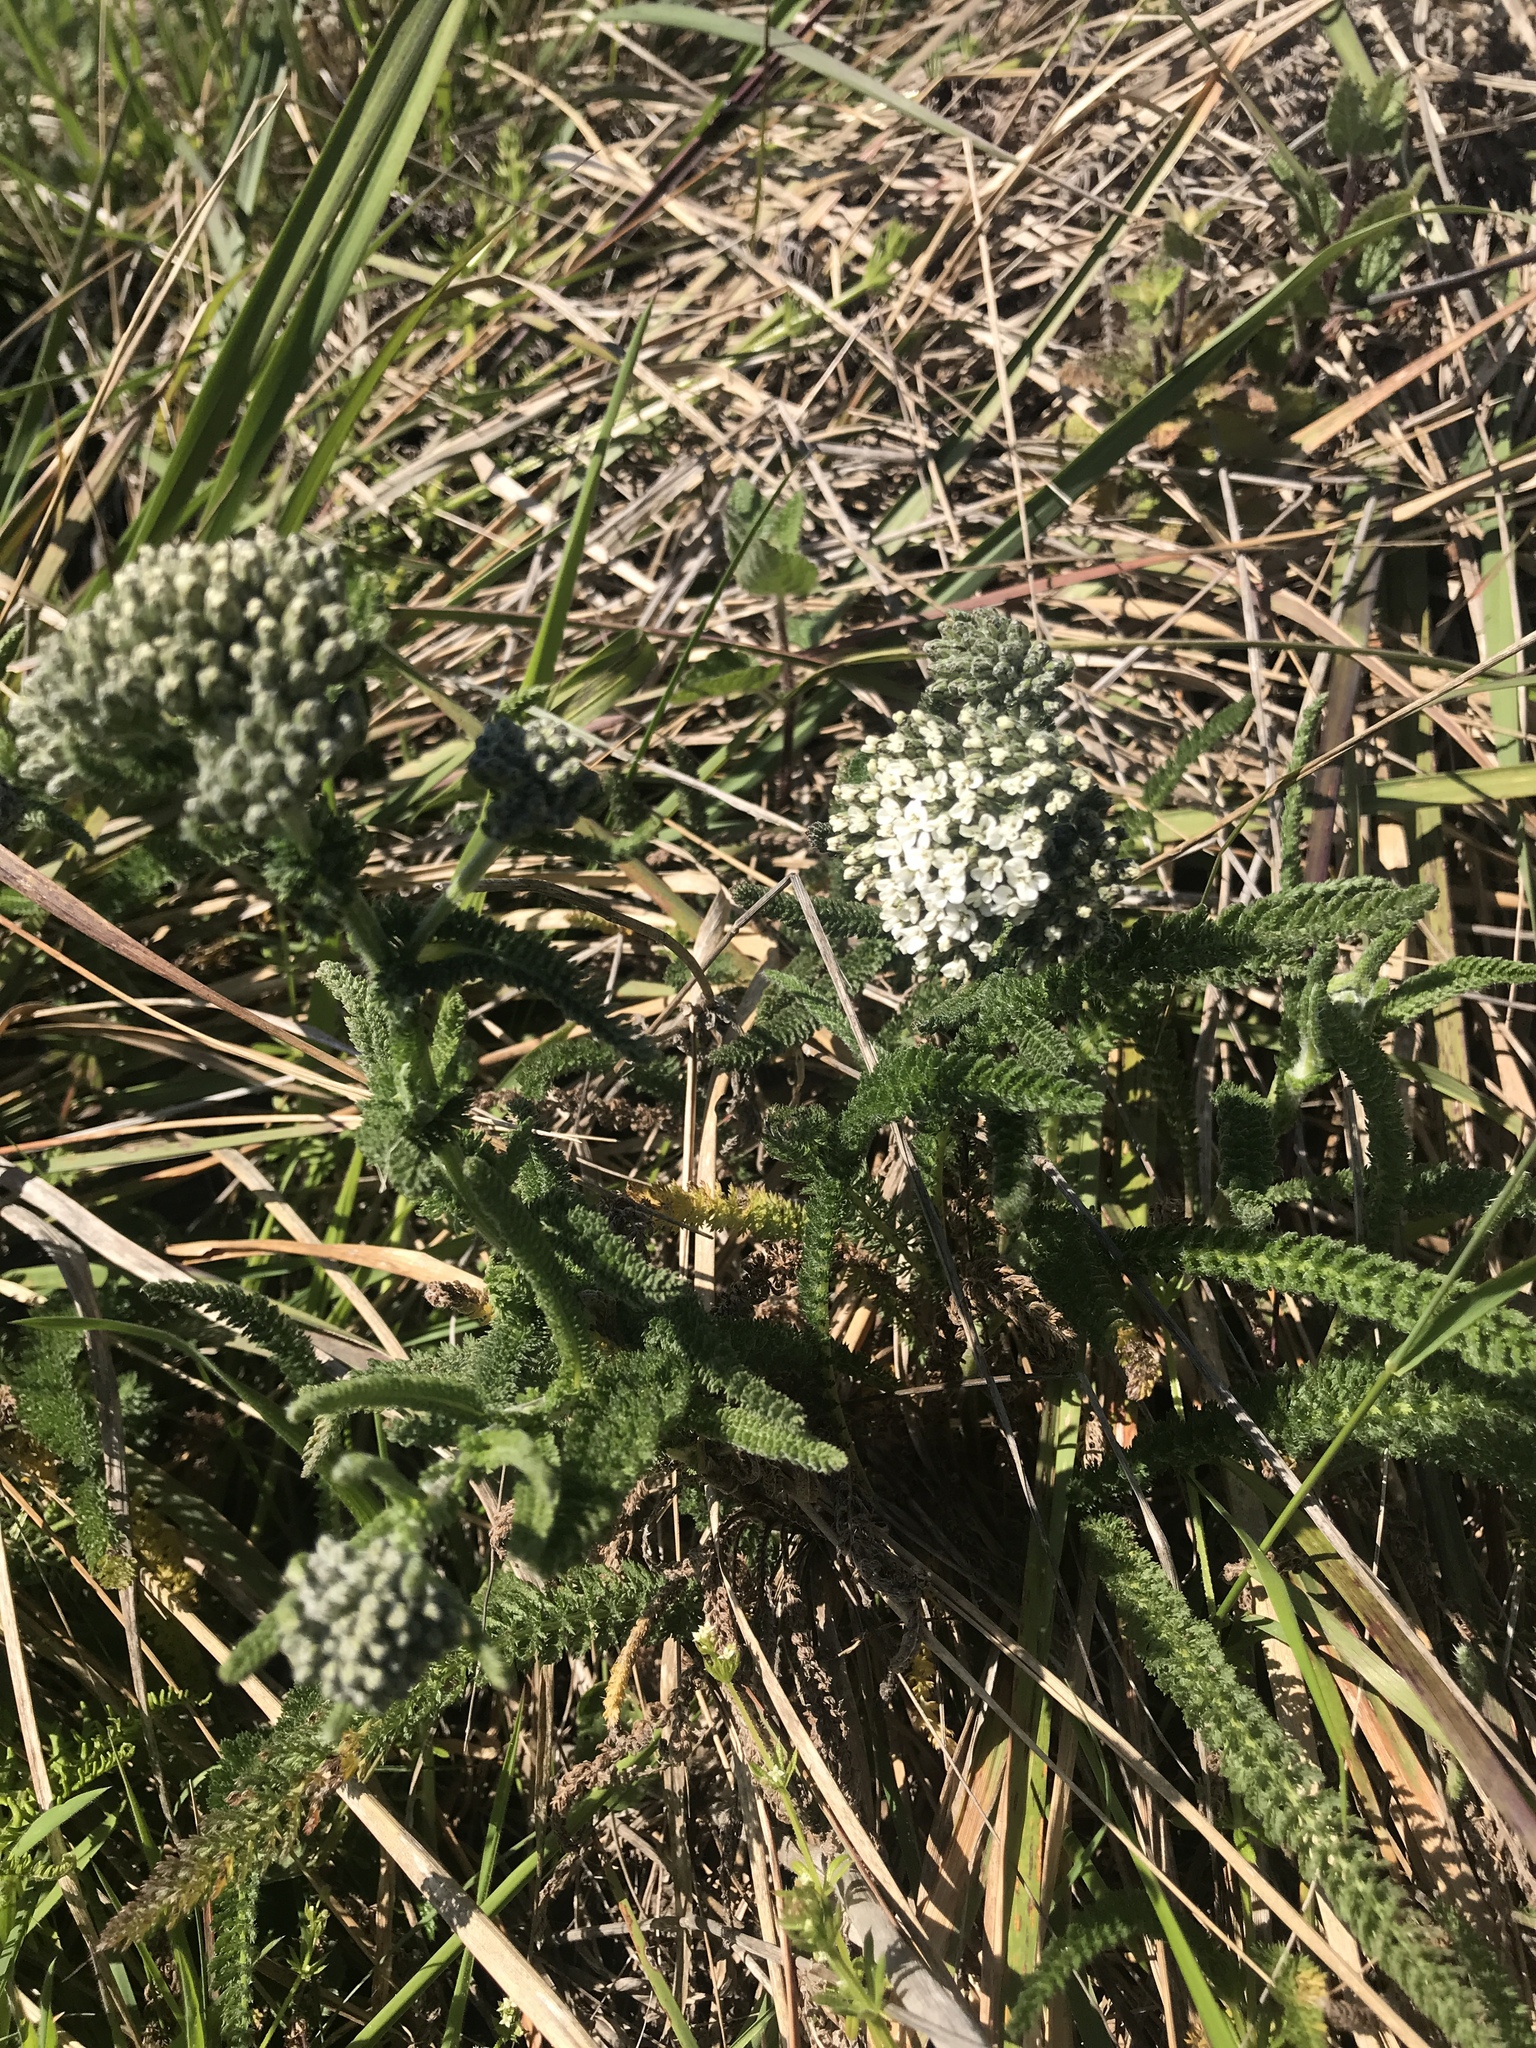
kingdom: Plantae
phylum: Tracheophyta
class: Magnoliopsida
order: Asterales
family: Asteraceae
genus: Achillea
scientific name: Achillea millefolium
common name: Yarrow
